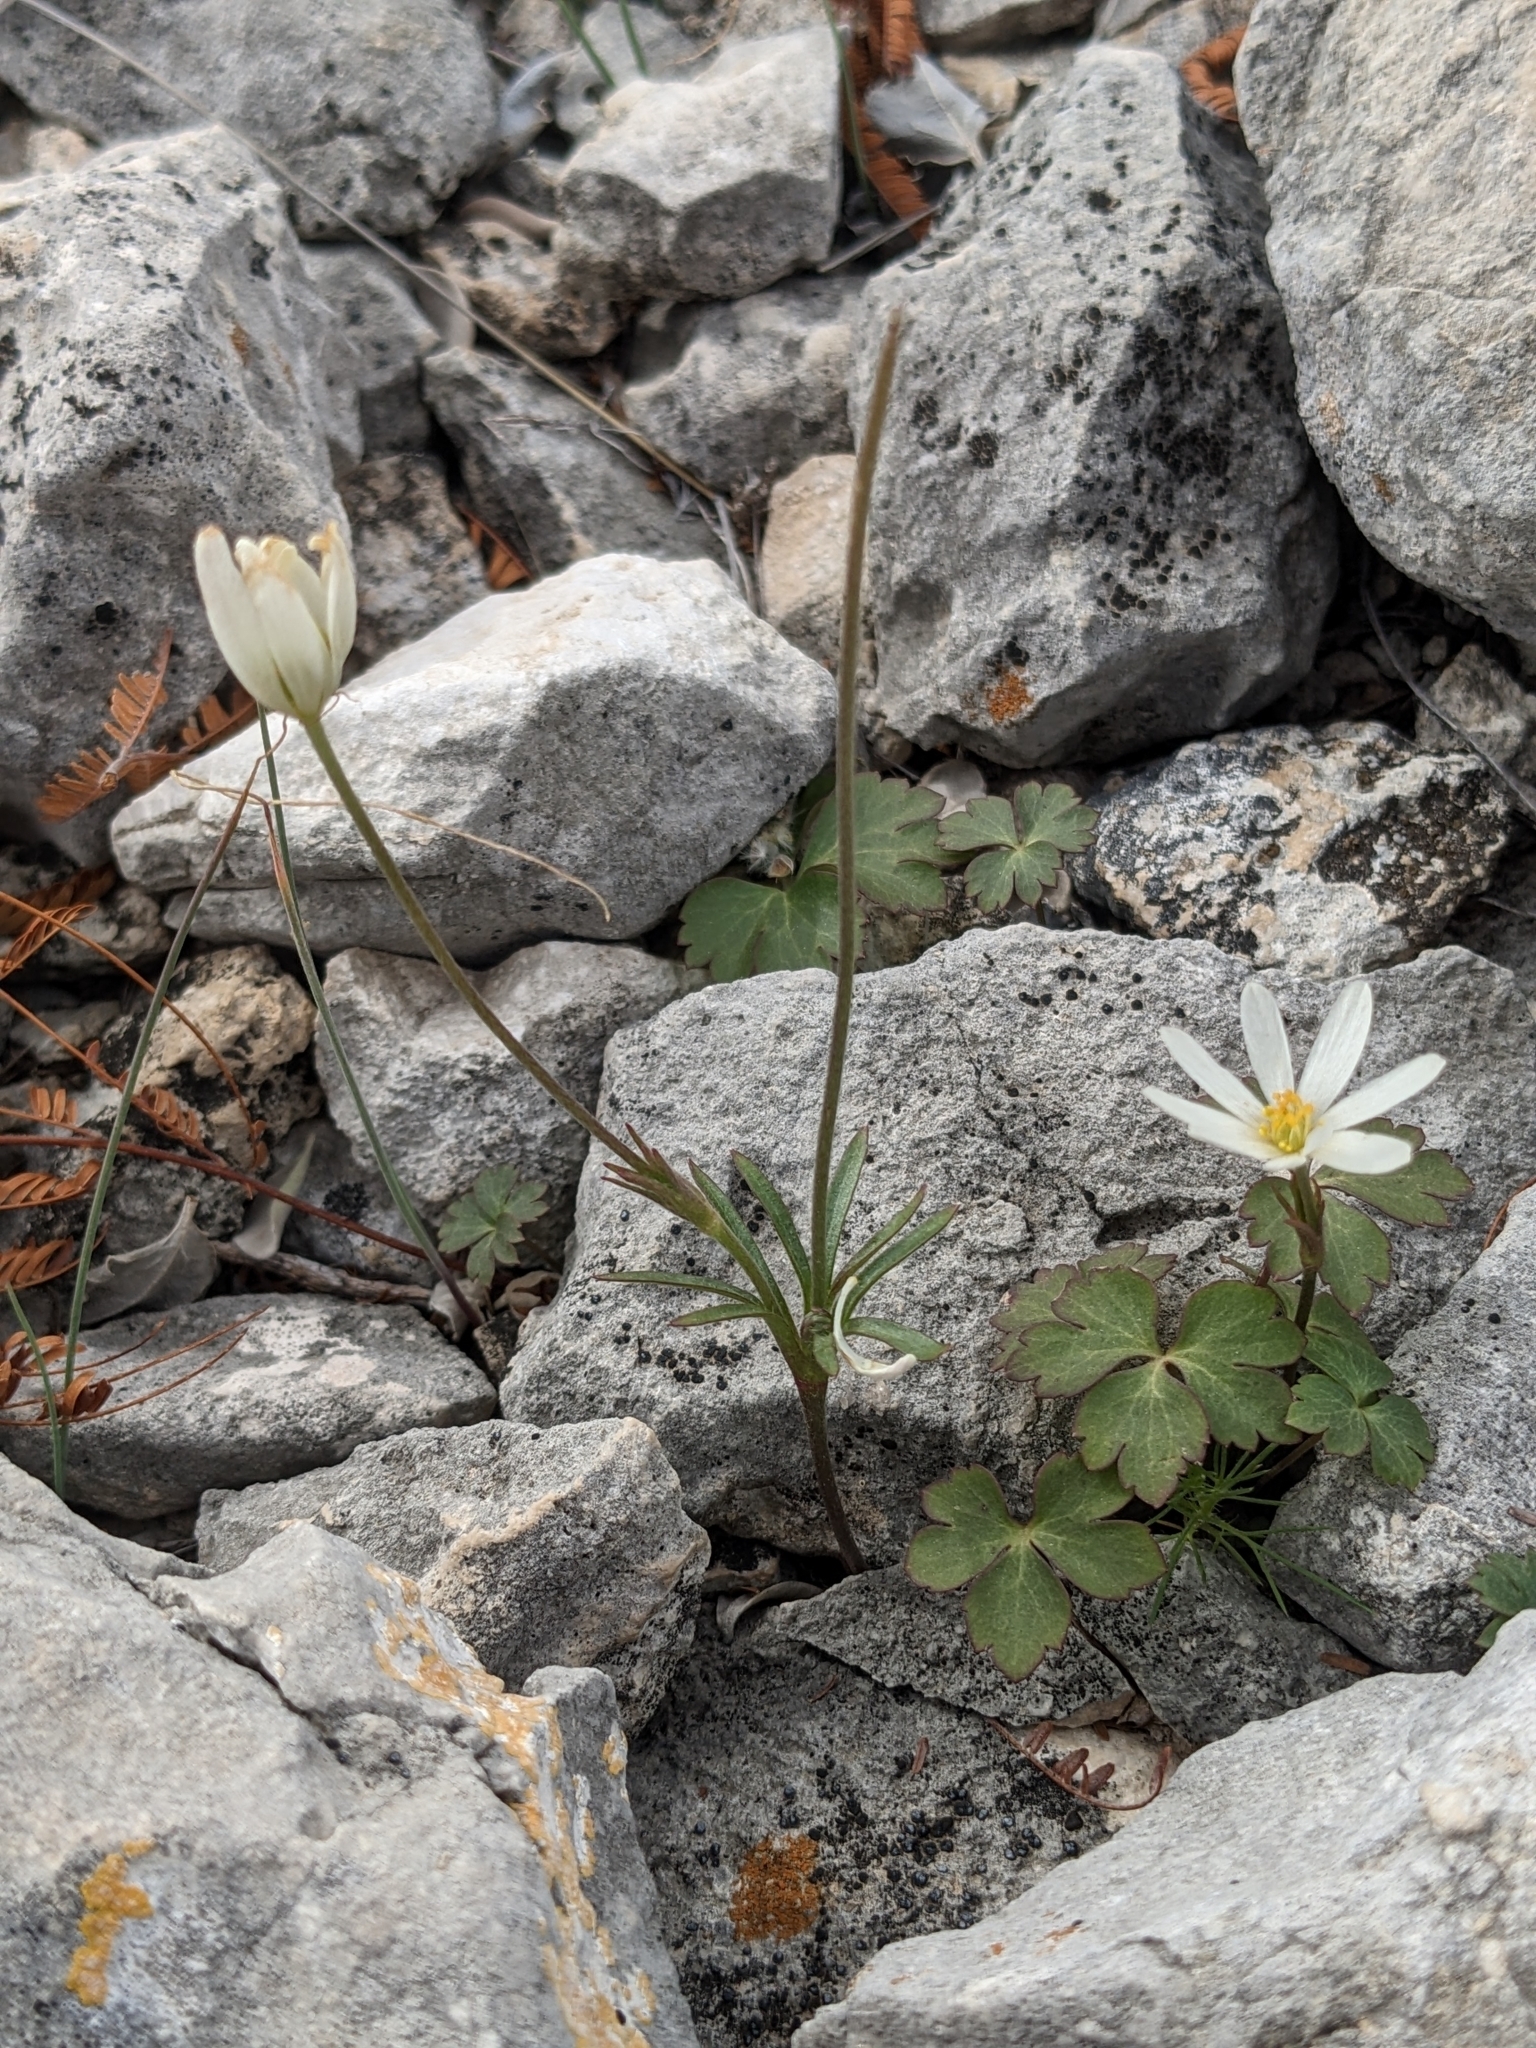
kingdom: Plantae
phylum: Tracheophyta
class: Magnoliopsida
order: Ranunculales
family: Ranunculaceae
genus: Anemone
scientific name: Anemone edwardsiana
